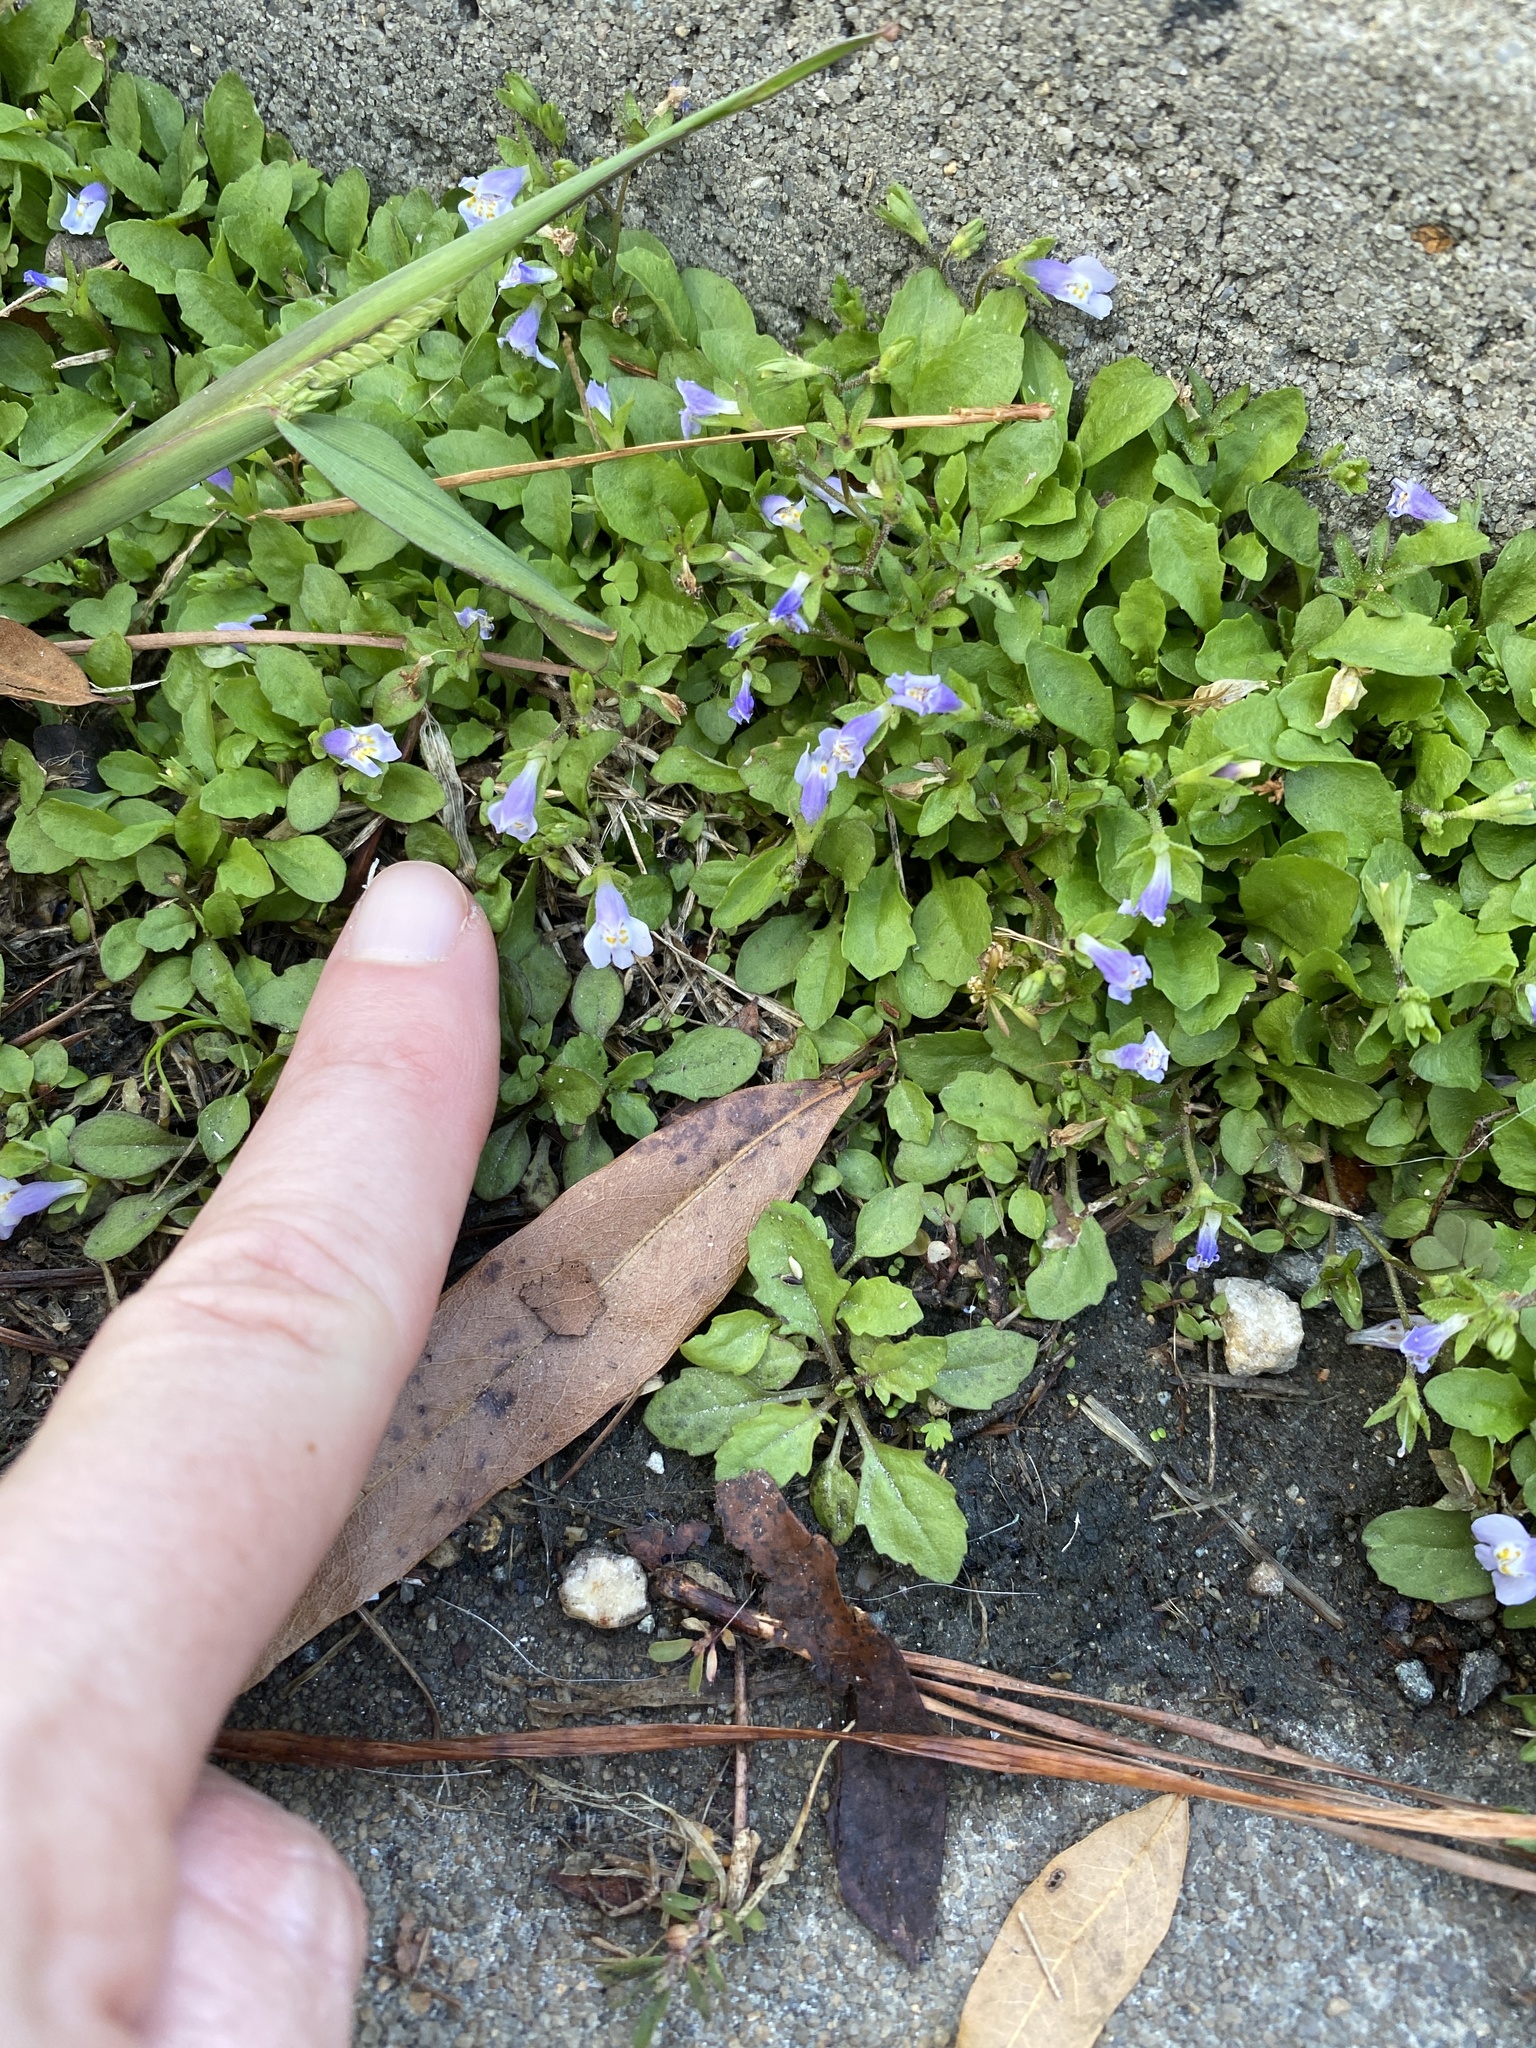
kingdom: Plantae
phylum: Tracheophyta
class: Magnoliopsida
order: Lamiales
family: Mazaceae
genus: Mazus
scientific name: Mazus pumilus
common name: Japanese mazus
